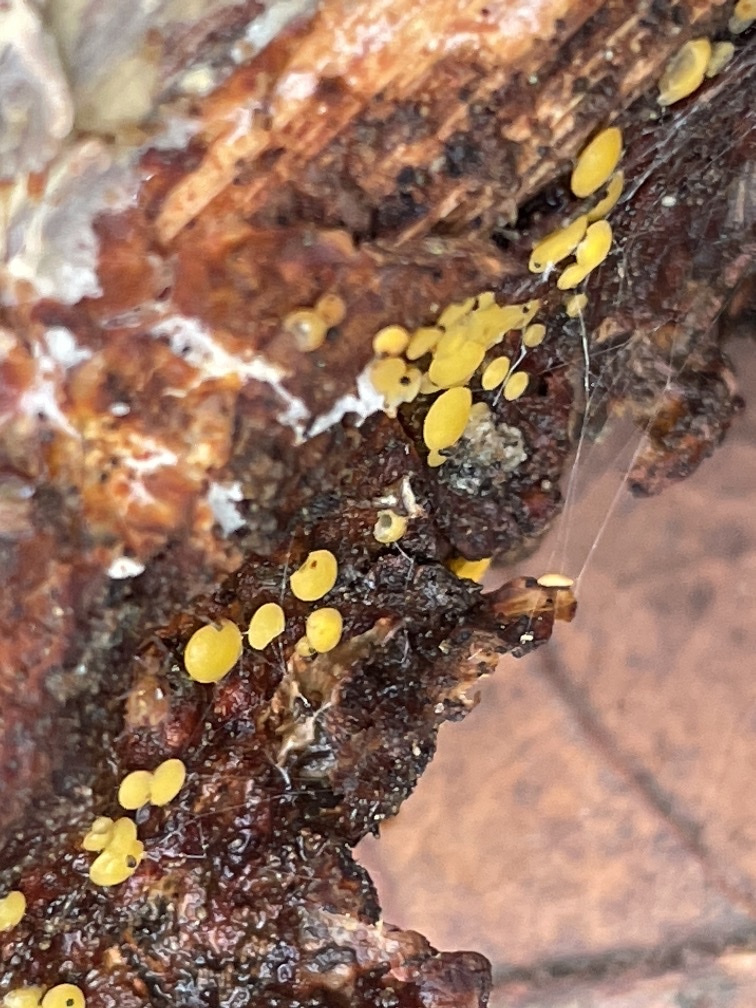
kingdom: Fungi
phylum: Ascomycota
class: Leotiomycetes
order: Helotiales
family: Pezizellaceae
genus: Calycina
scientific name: Calycina citrina
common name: Yellow fairy cups
